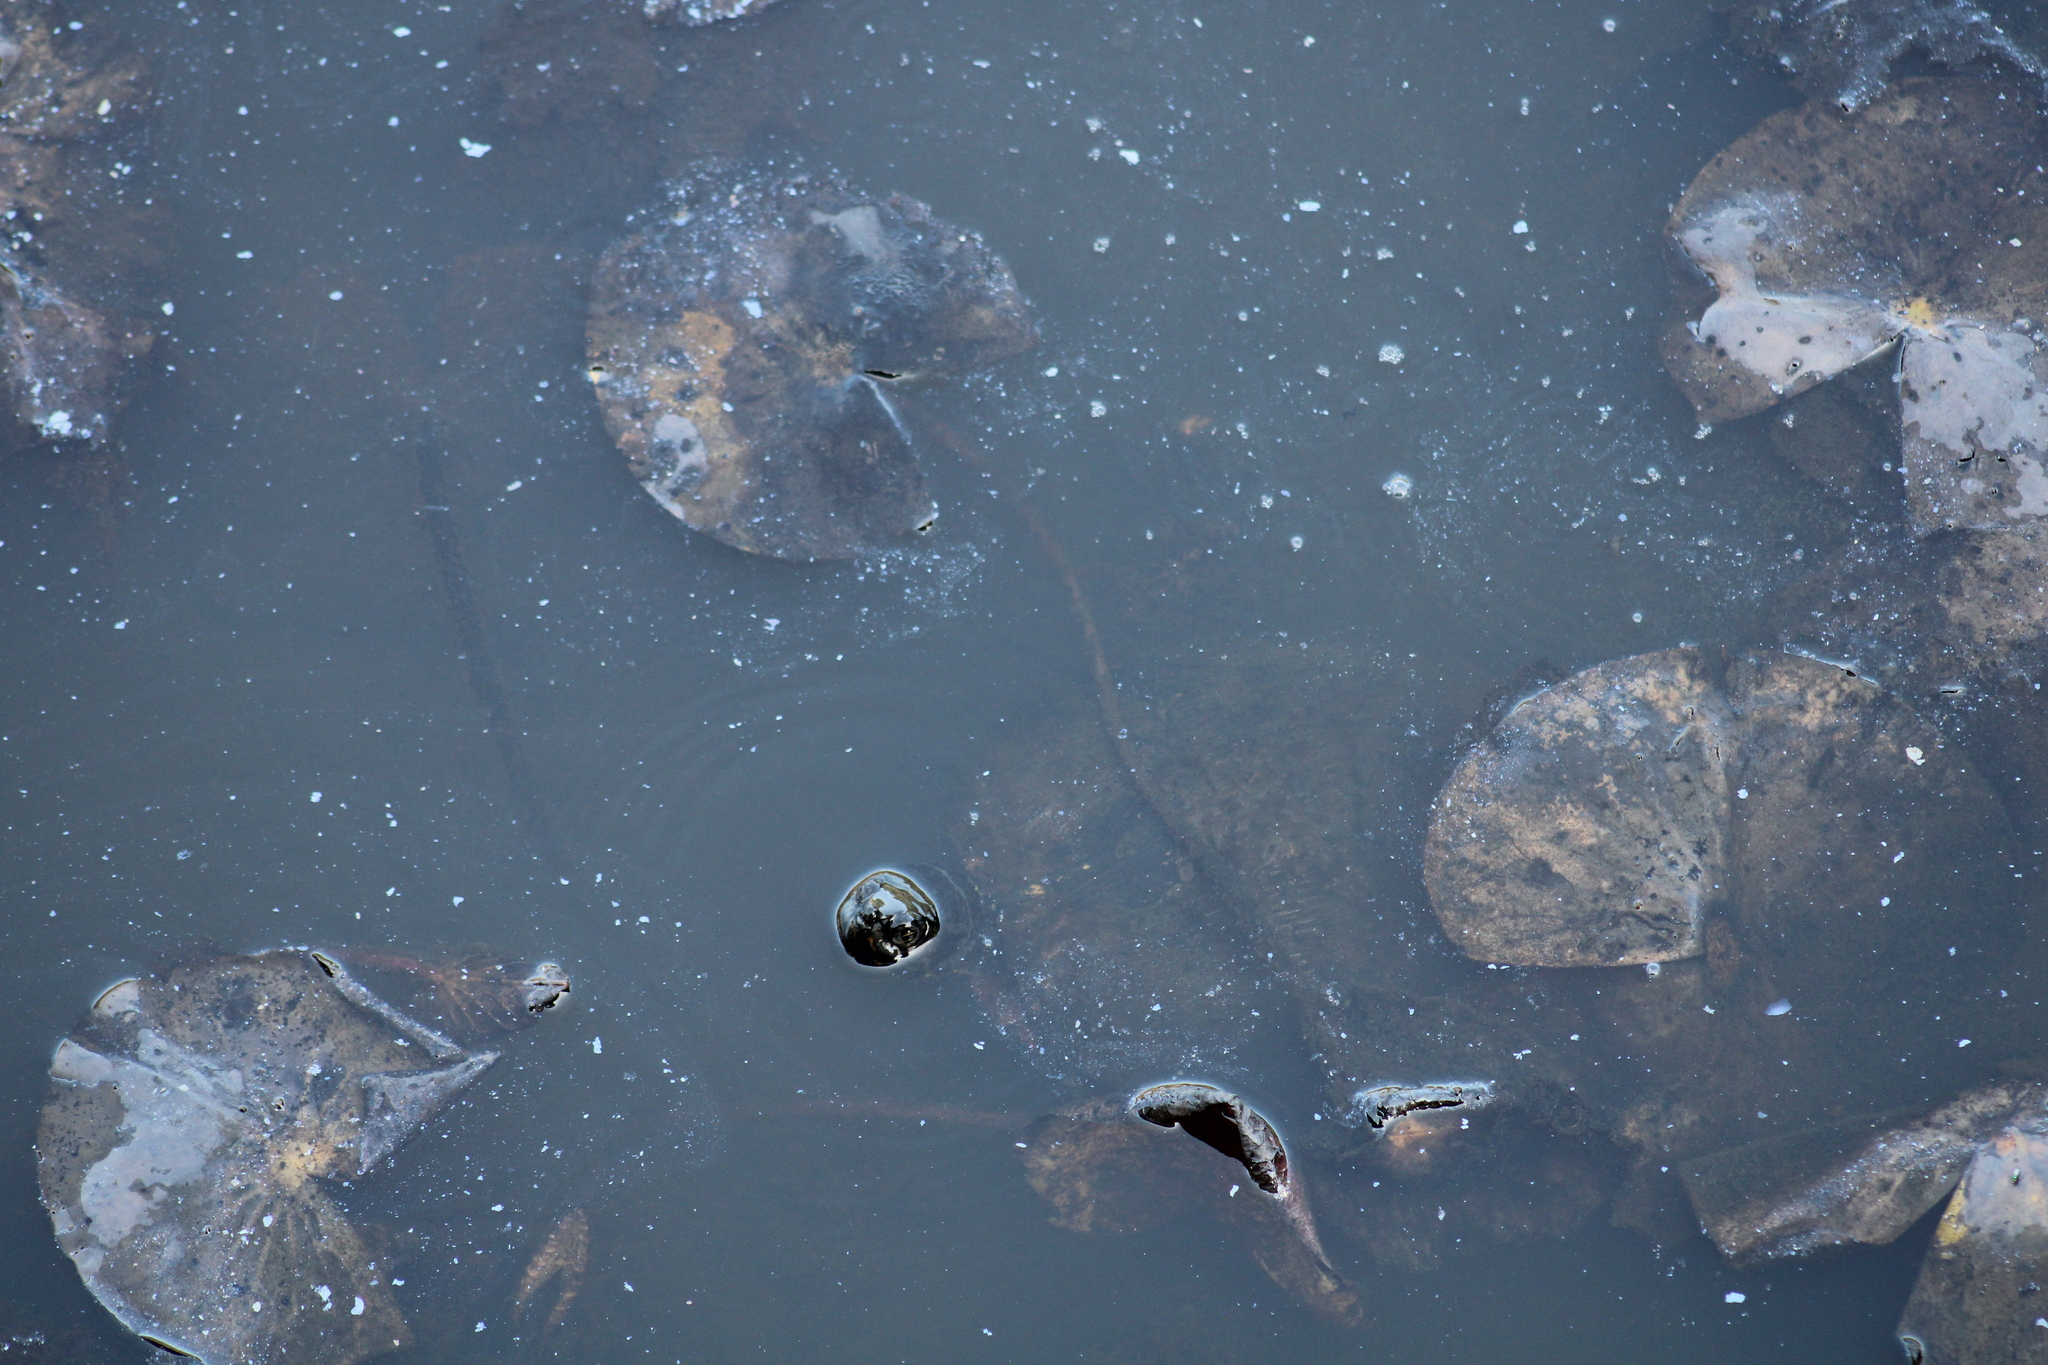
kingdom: Animalia
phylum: Chordata
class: Testudines
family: Emydidae
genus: Trachemys
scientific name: Trachemys scripta
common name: Slider
